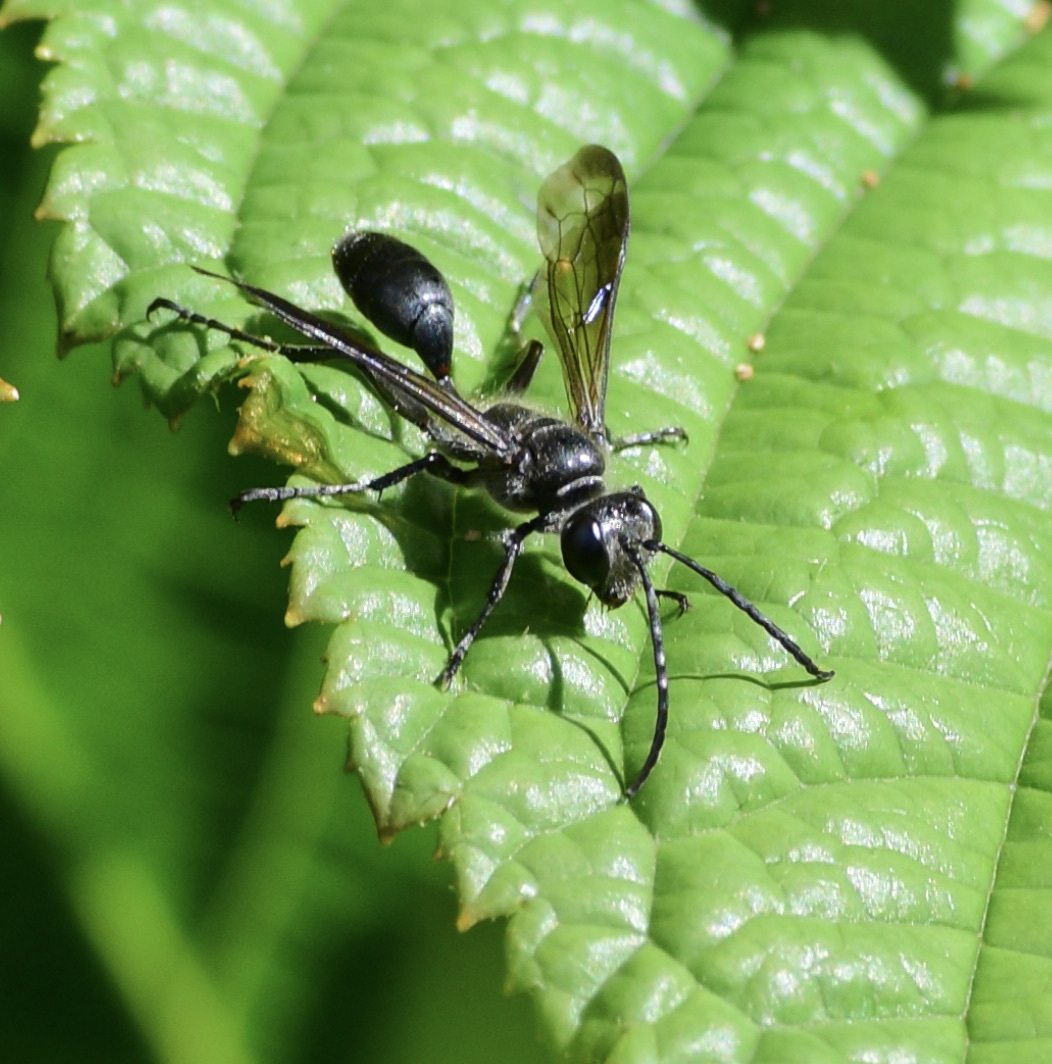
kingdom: Animalia
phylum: Arthropoda
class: Insecta
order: Hymenoptera
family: Sphecidae
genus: Isodontia
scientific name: Isodontia mexicana
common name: Mud dauber
